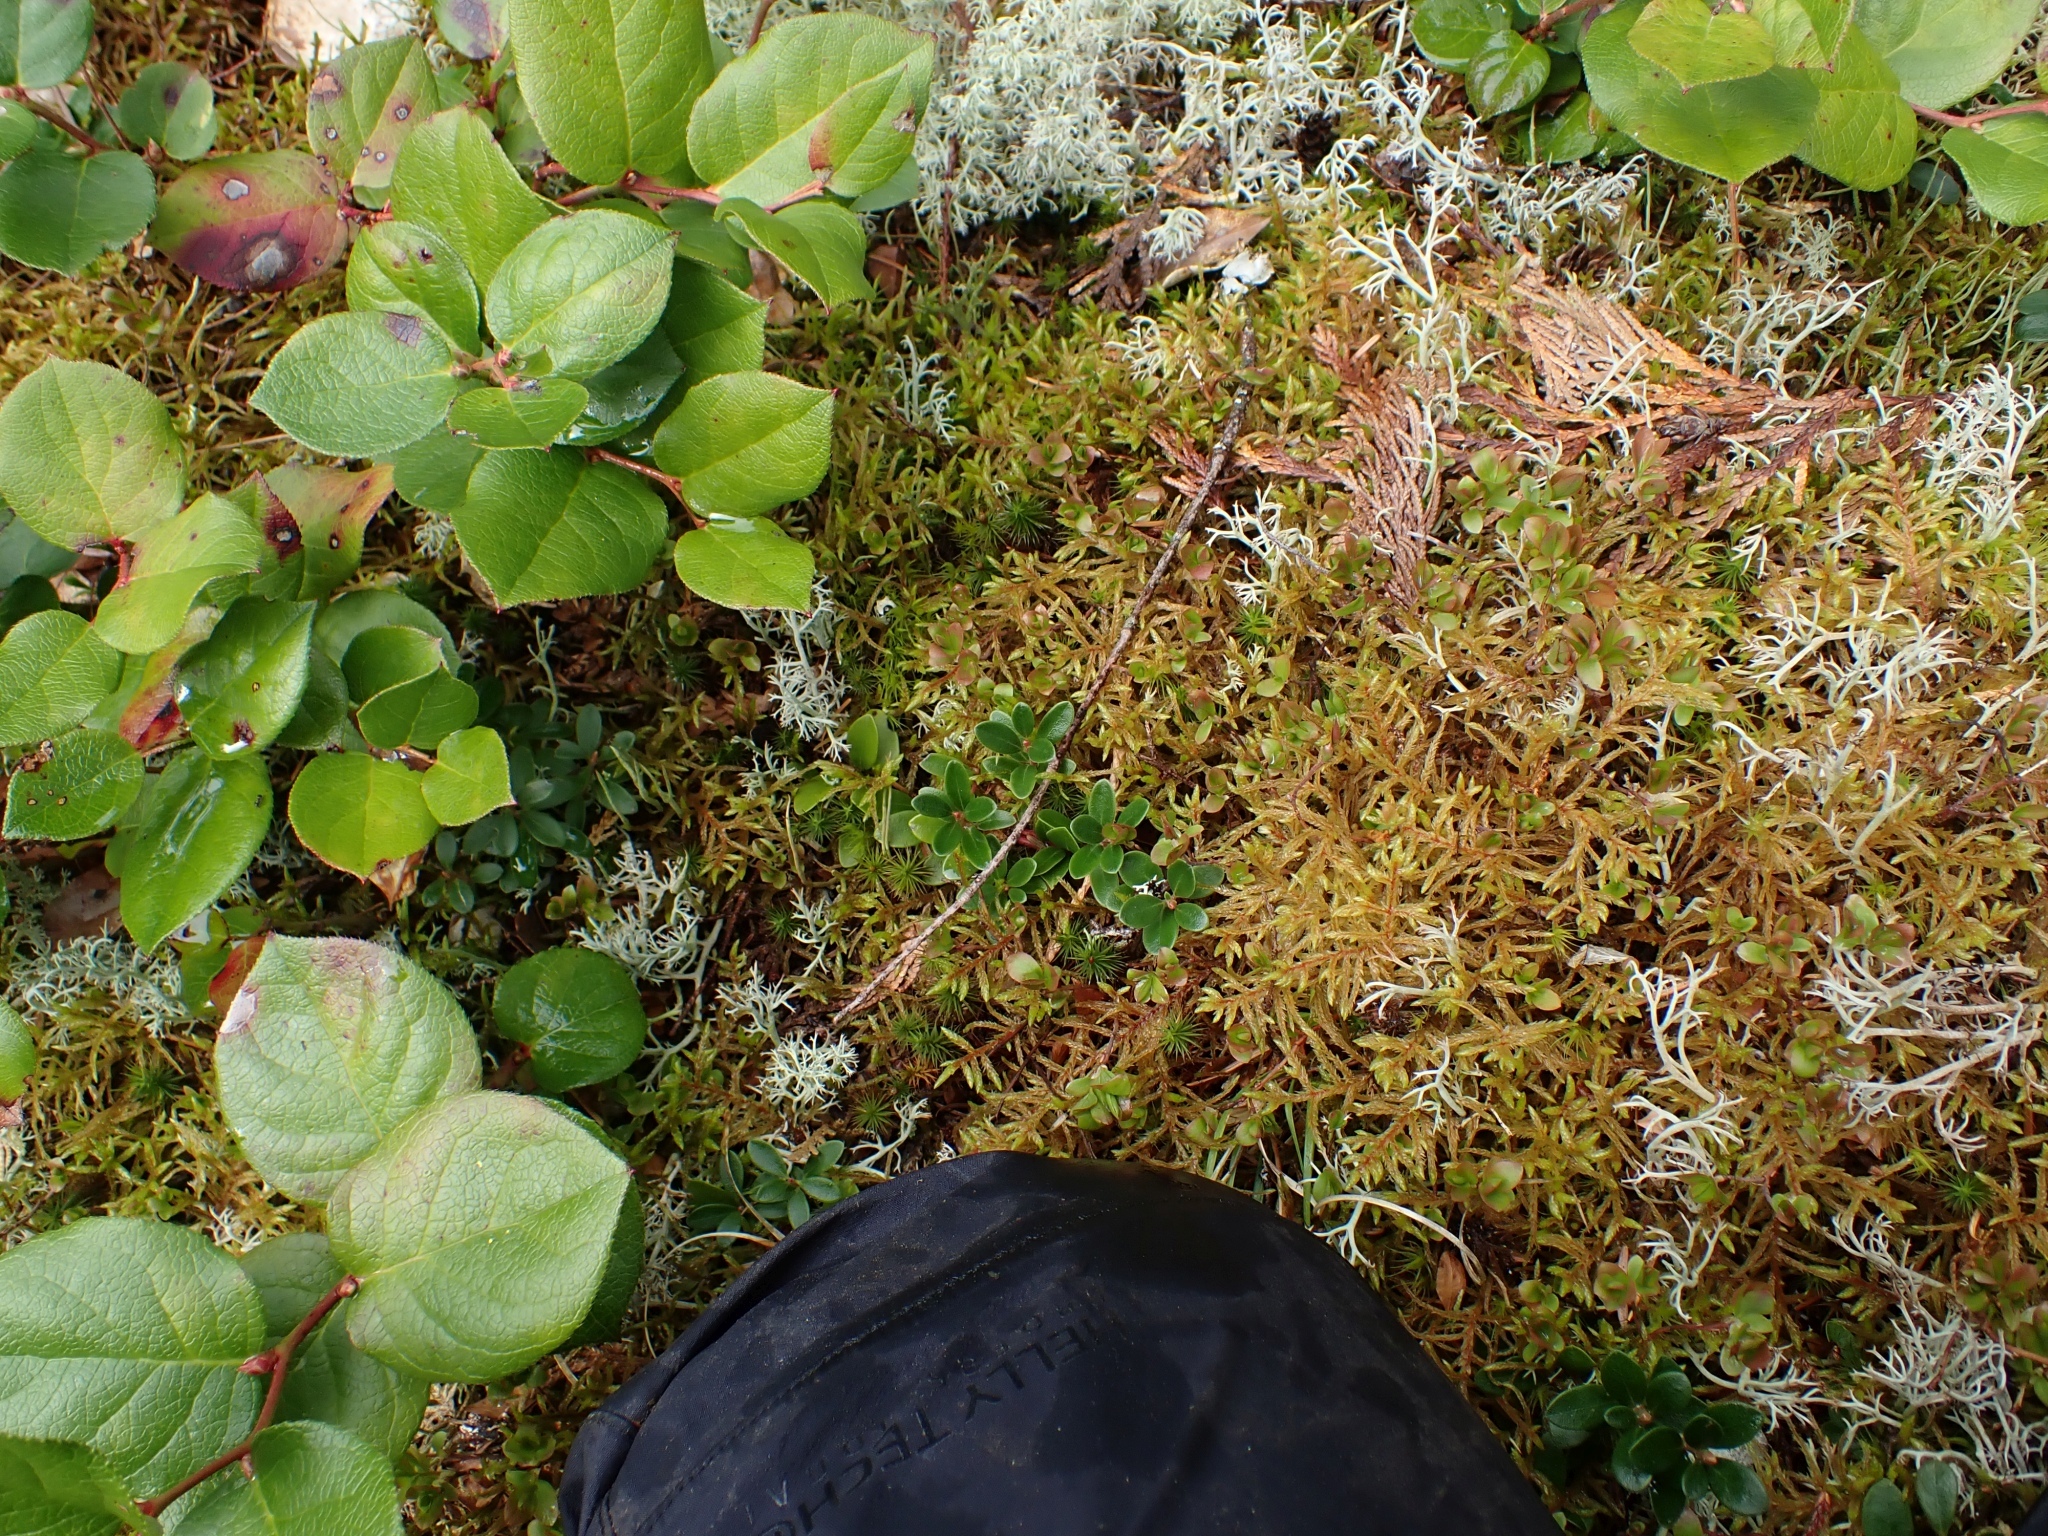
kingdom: Plantae
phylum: Tracheophyta
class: Magnoliopsida
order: Ericales
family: Ericaceae
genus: Arctostaphylos
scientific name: Arctostaphylos uva-ursi
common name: Bearberry
